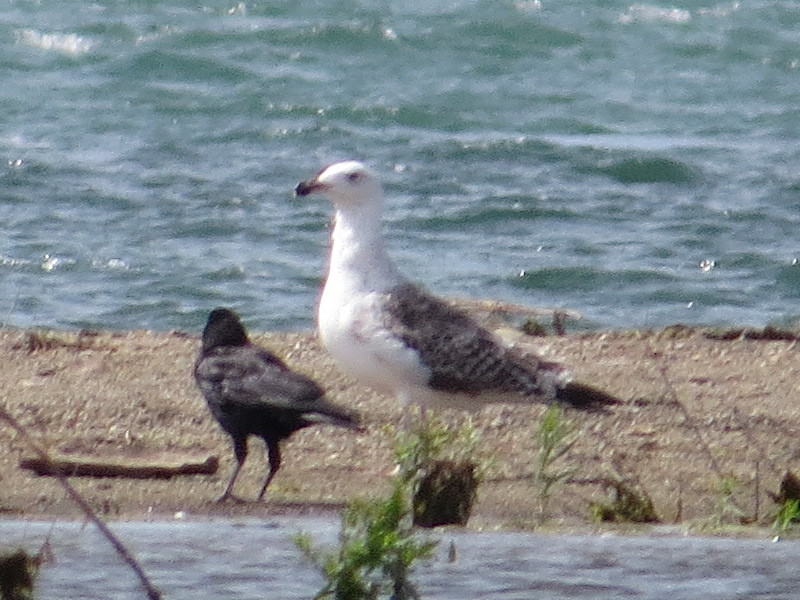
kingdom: Animalia
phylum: Chordata
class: Aves
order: Charadriiformes
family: Laridae
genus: Larus
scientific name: Larus marinus
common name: Great black-backed gull
